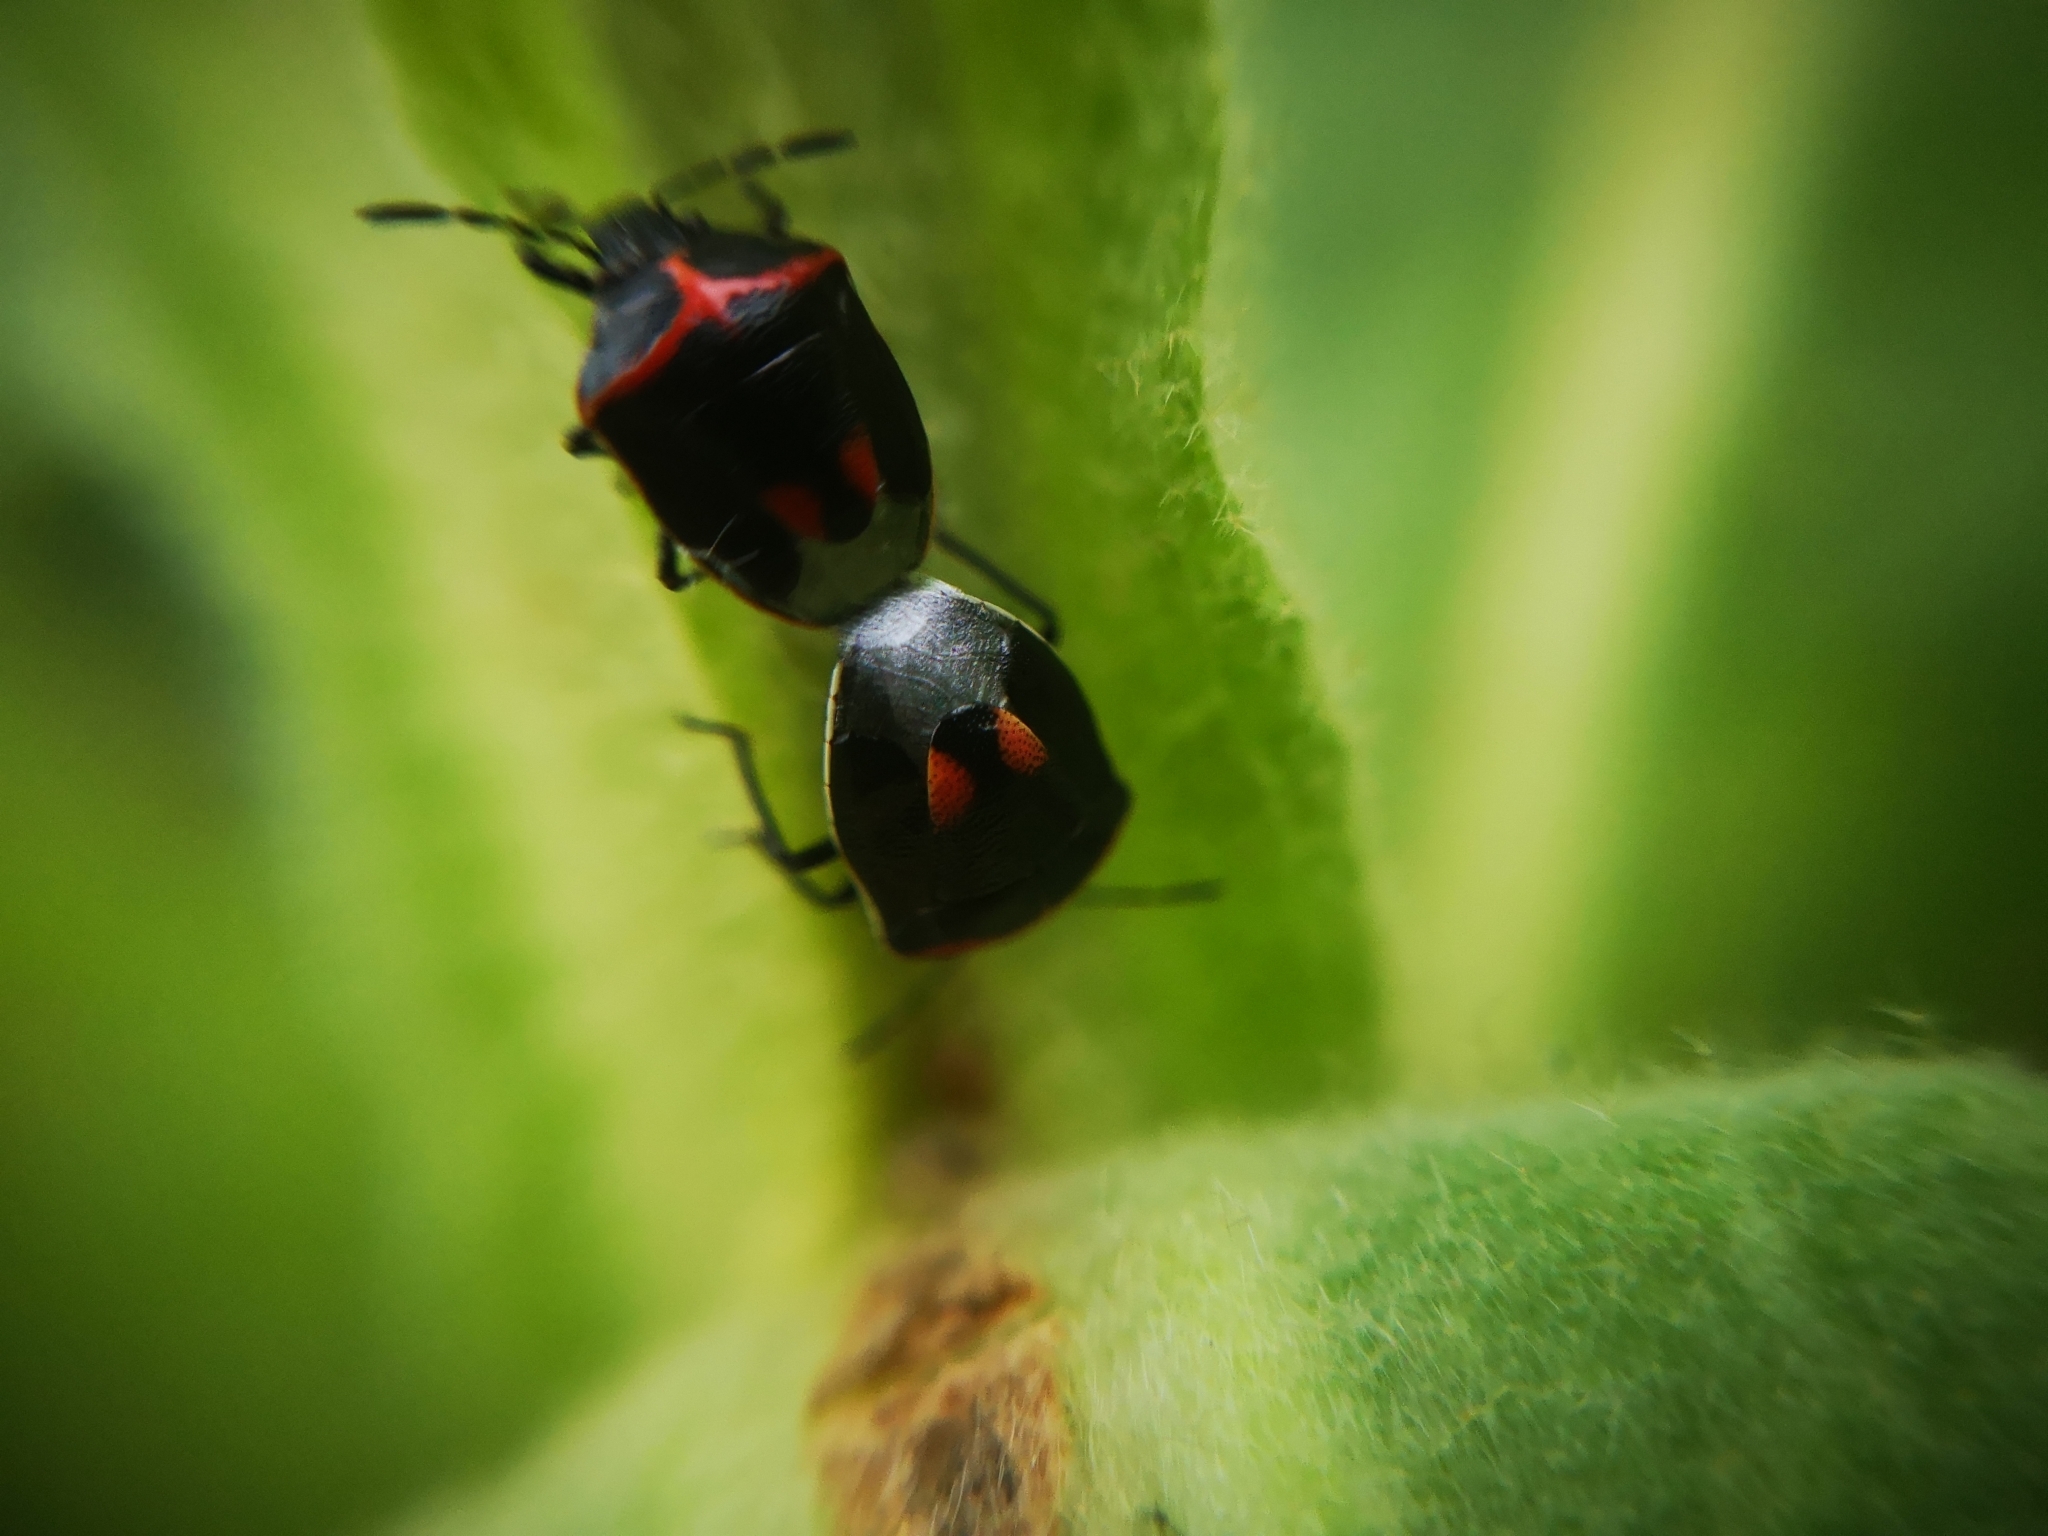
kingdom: Animalia
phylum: Arthropoda
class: Insecta
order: Hemiptera
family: Pentatomidae
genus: Cosmopepla
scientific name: Cosmopepla lintneriana
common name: Twice-stabbed stink bug
